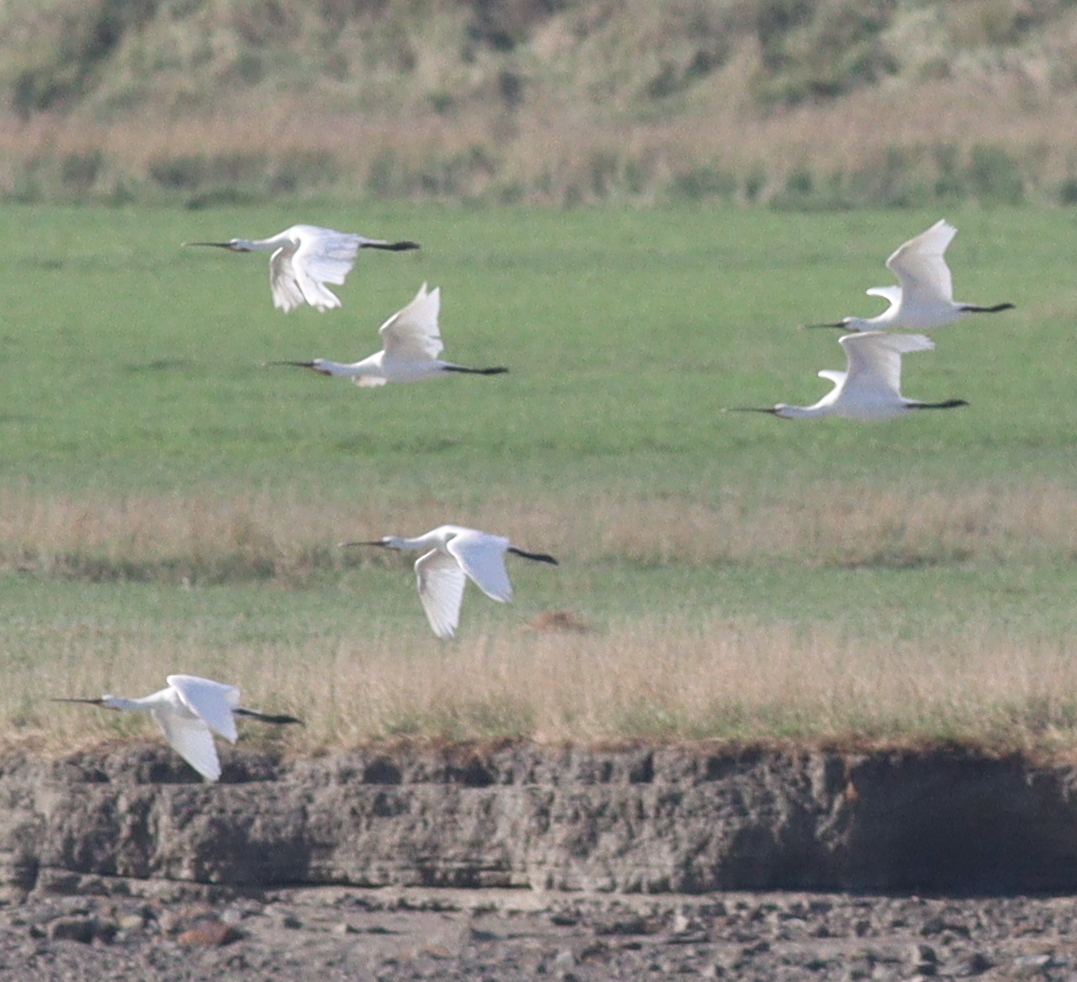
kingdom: Animalia
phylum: Chordata
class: Aves
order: Pelecaniformes
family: Threskiornithidae
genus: Platalea
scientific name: Platalea leucorodia
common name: Eurasian spoonbill
